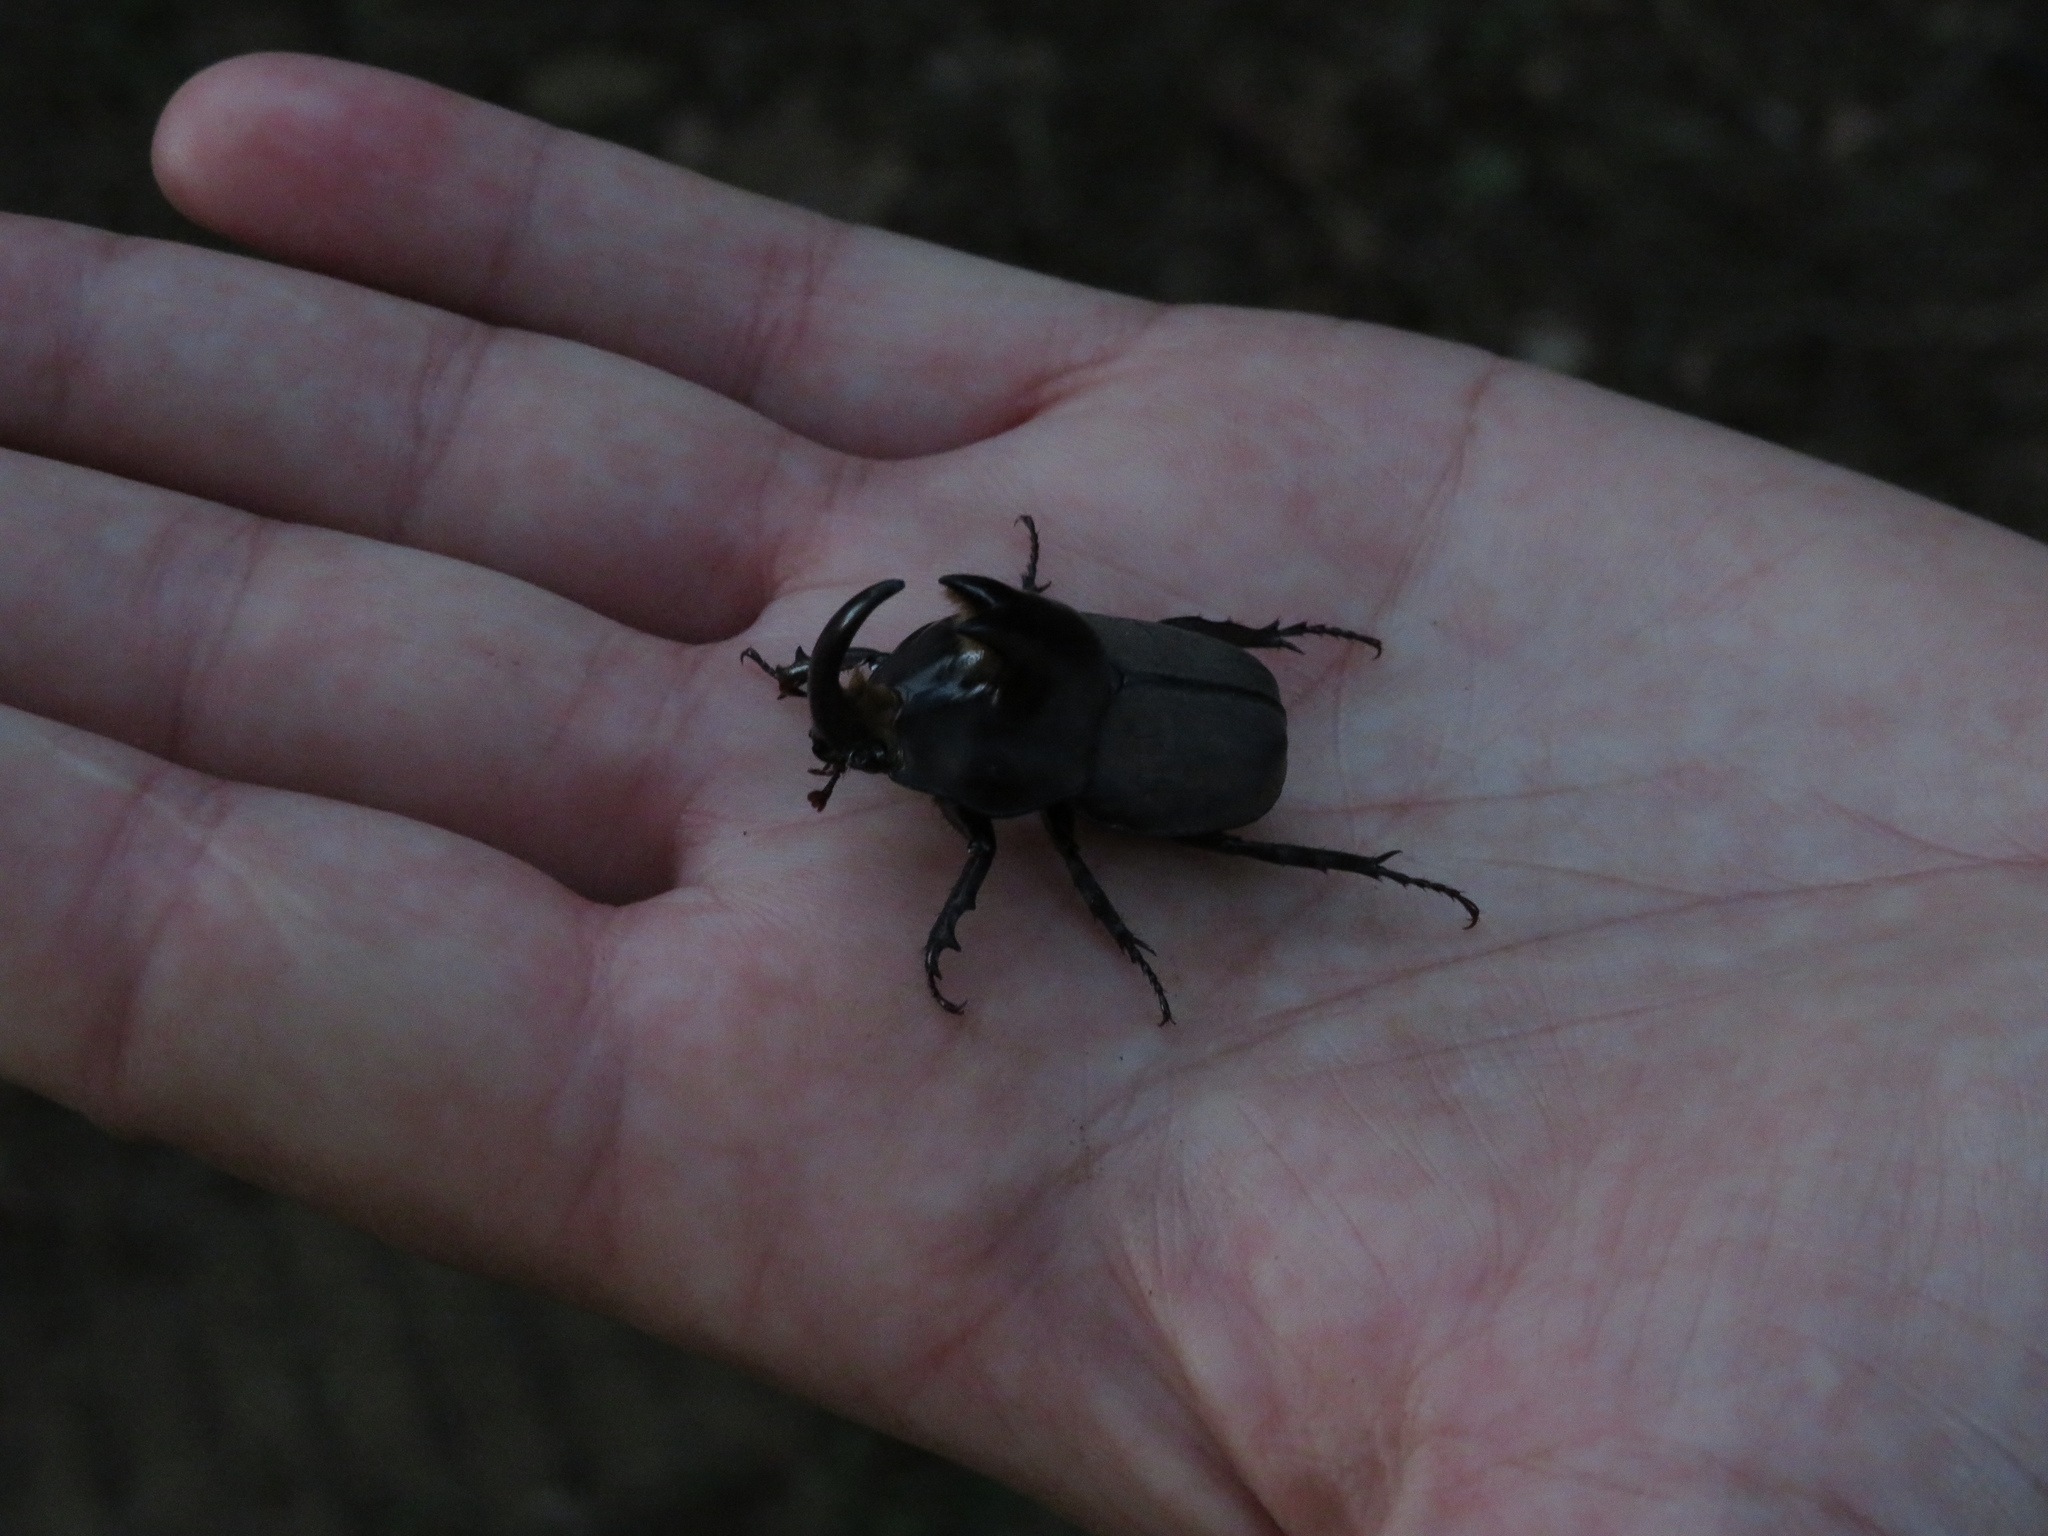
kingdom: Animalia
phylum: Arthropoda
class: Insecta
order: Coleoptera
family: Scarabaeidae
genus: Diloboderus
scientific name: Diloboderus abderus
